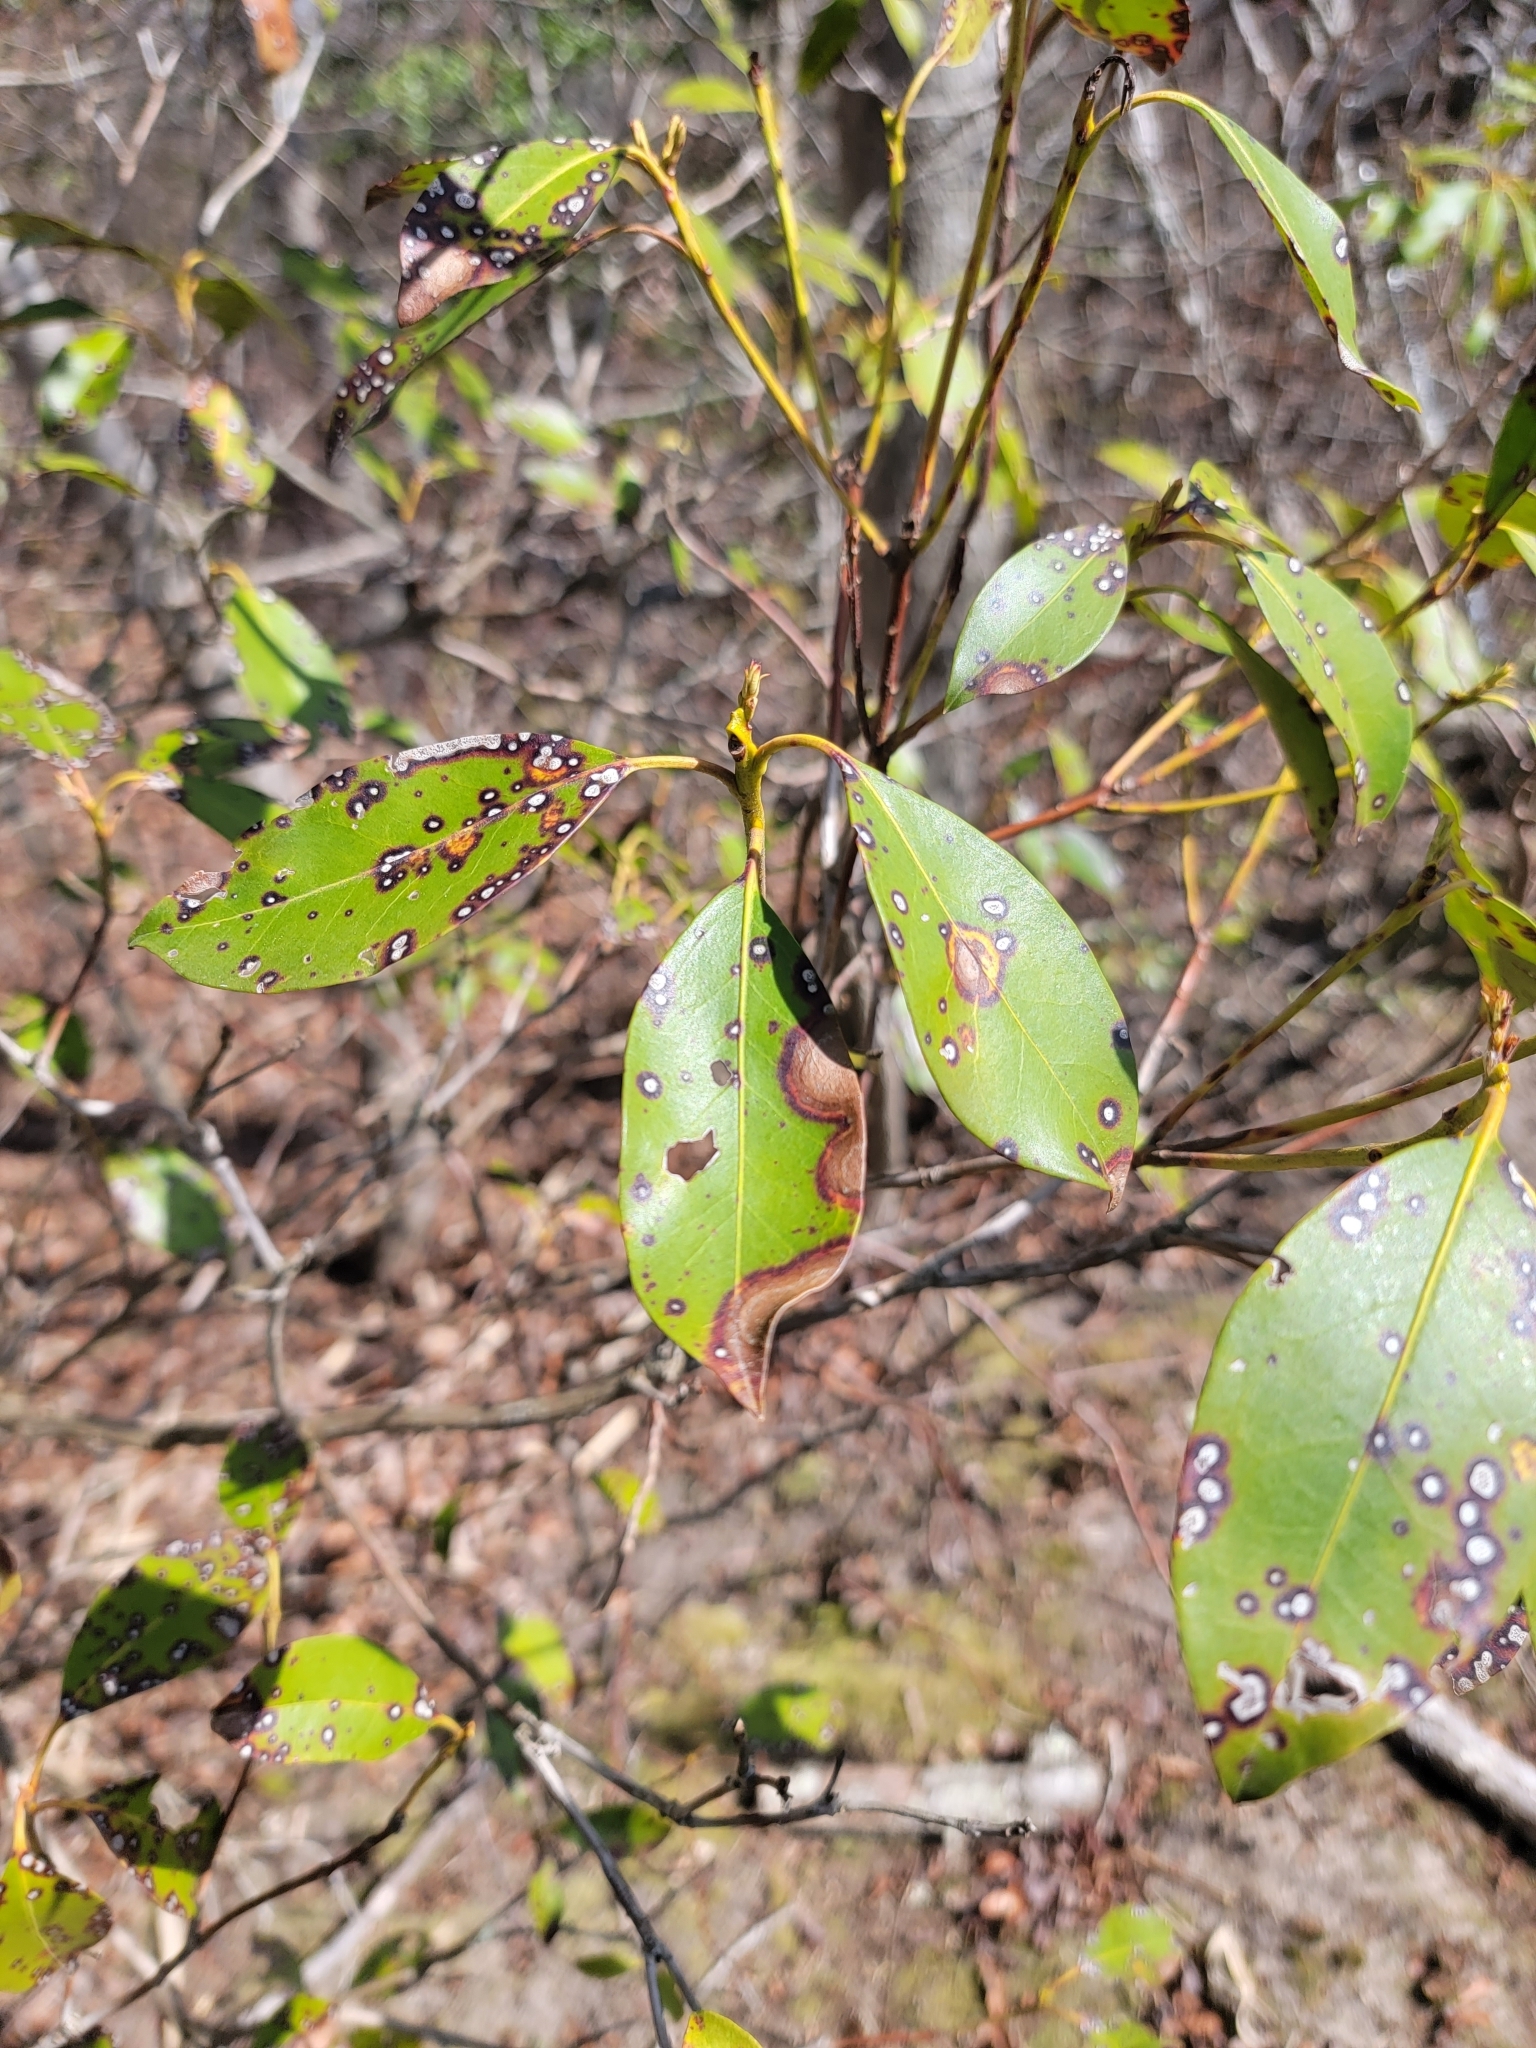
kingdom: Fungi
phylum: Ascomycota
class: Dothideomycetes
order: Mycosphaerellales
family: Mycosphaerellaceae
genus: Mycosphaerella
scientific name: Mycosphaerella colorata
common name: Mountain laurel leaf spot
